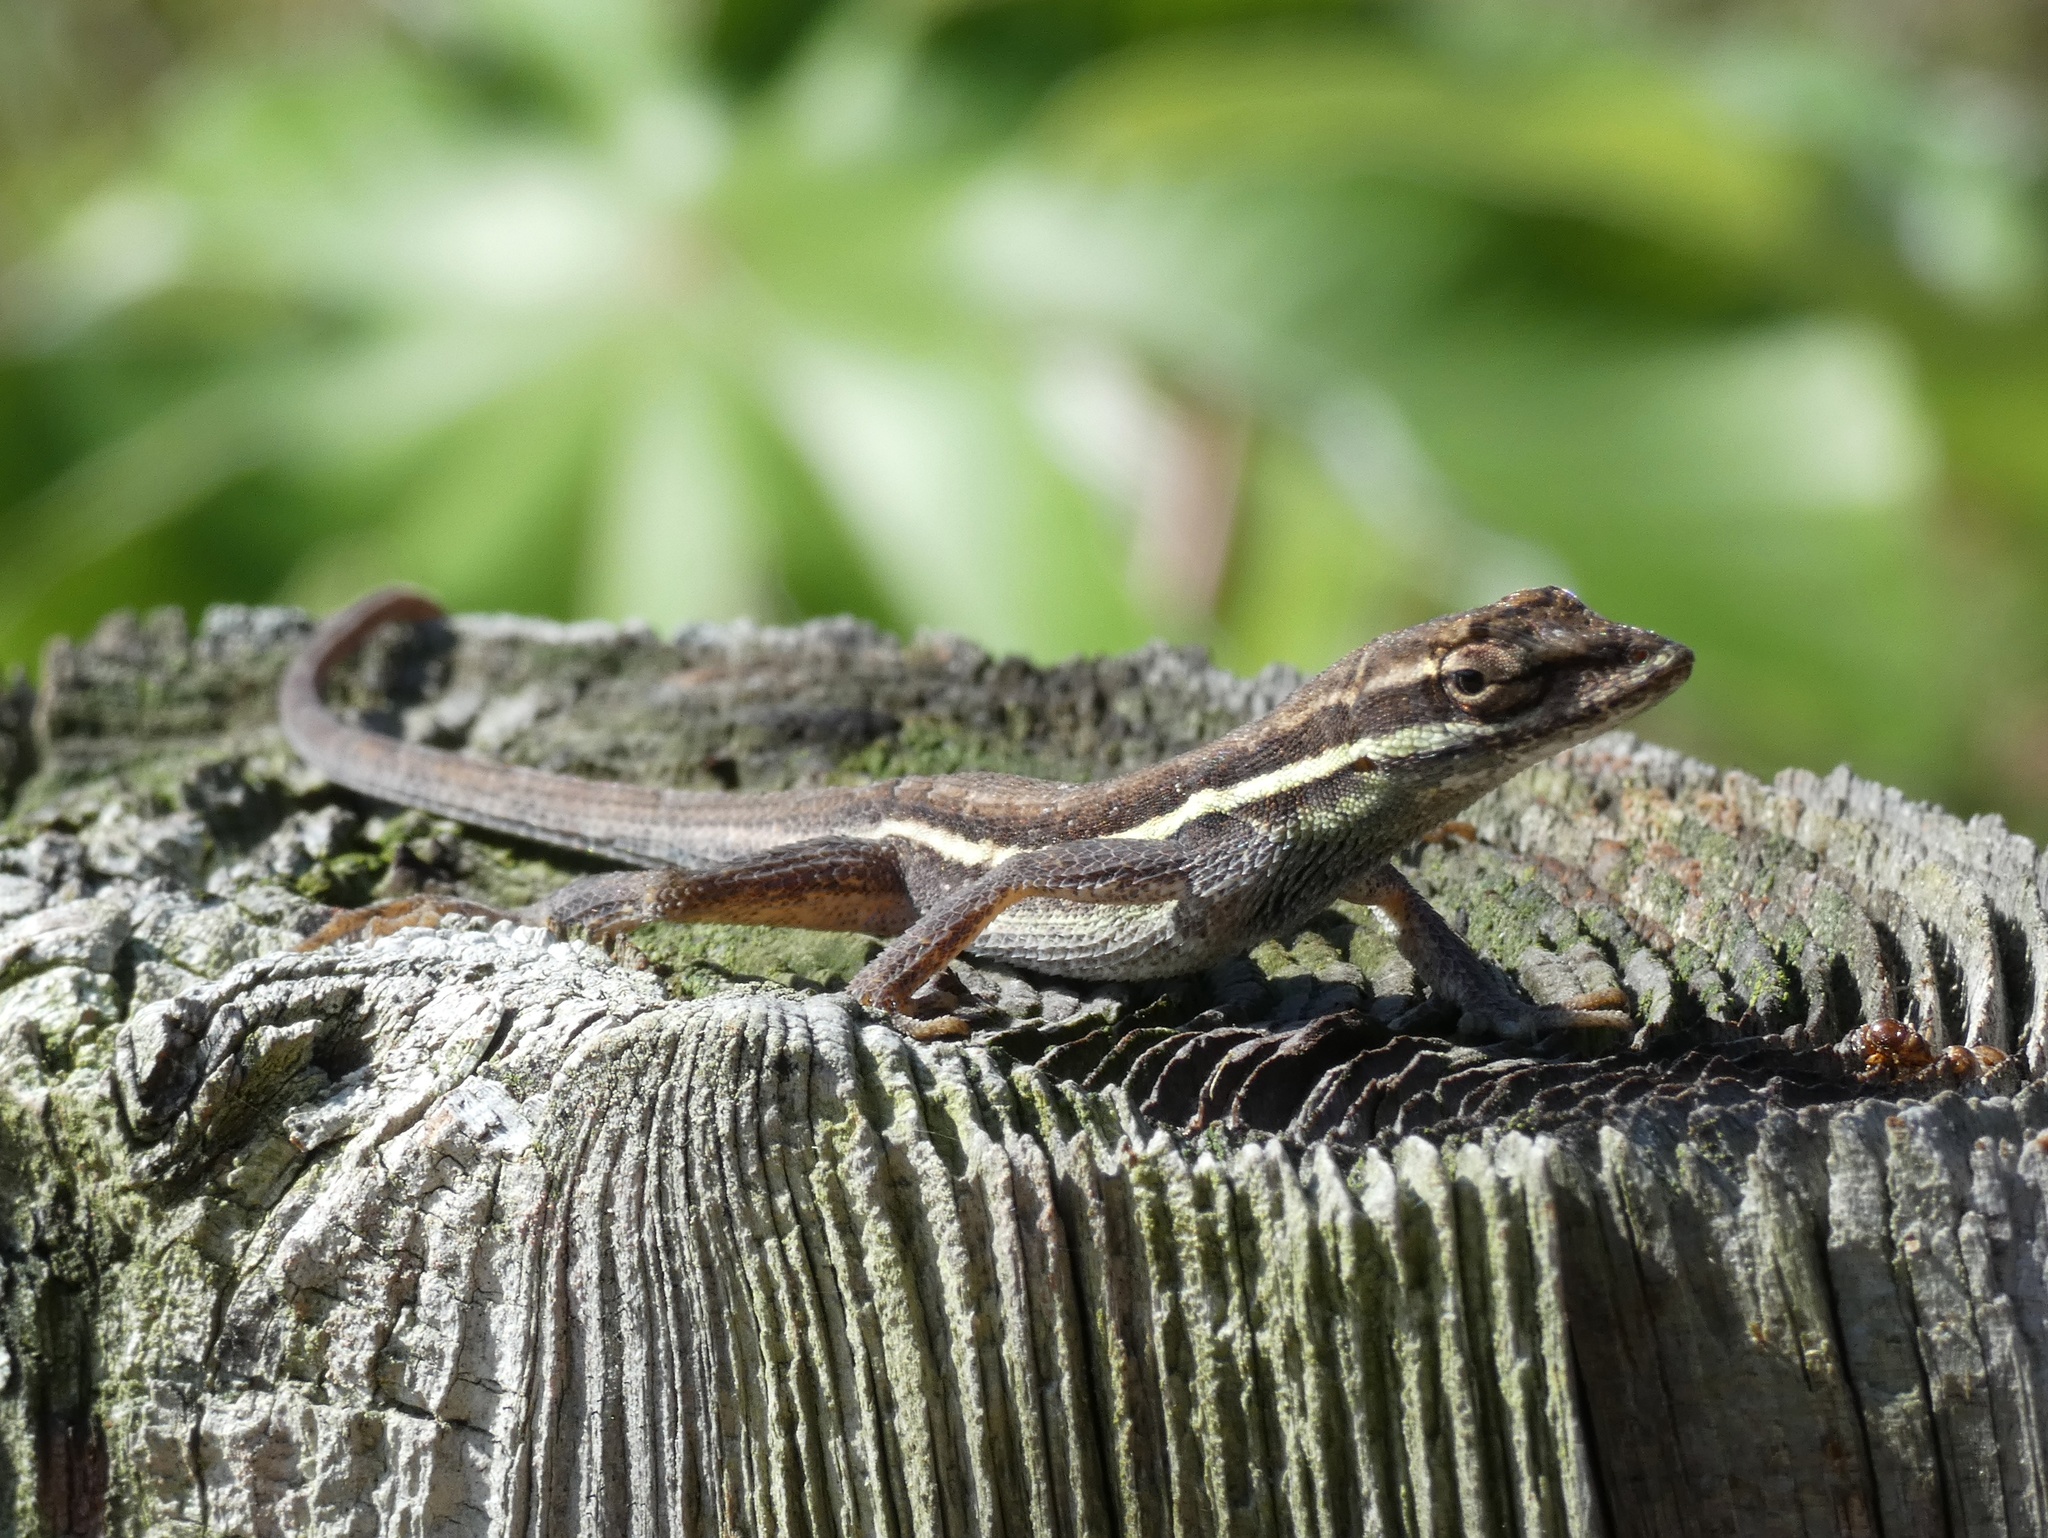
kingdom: Animalia
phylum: Chordata
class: Squamata
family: Dactyloidae
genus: Anolis
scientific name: Anolis auratus
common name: Grass anole
